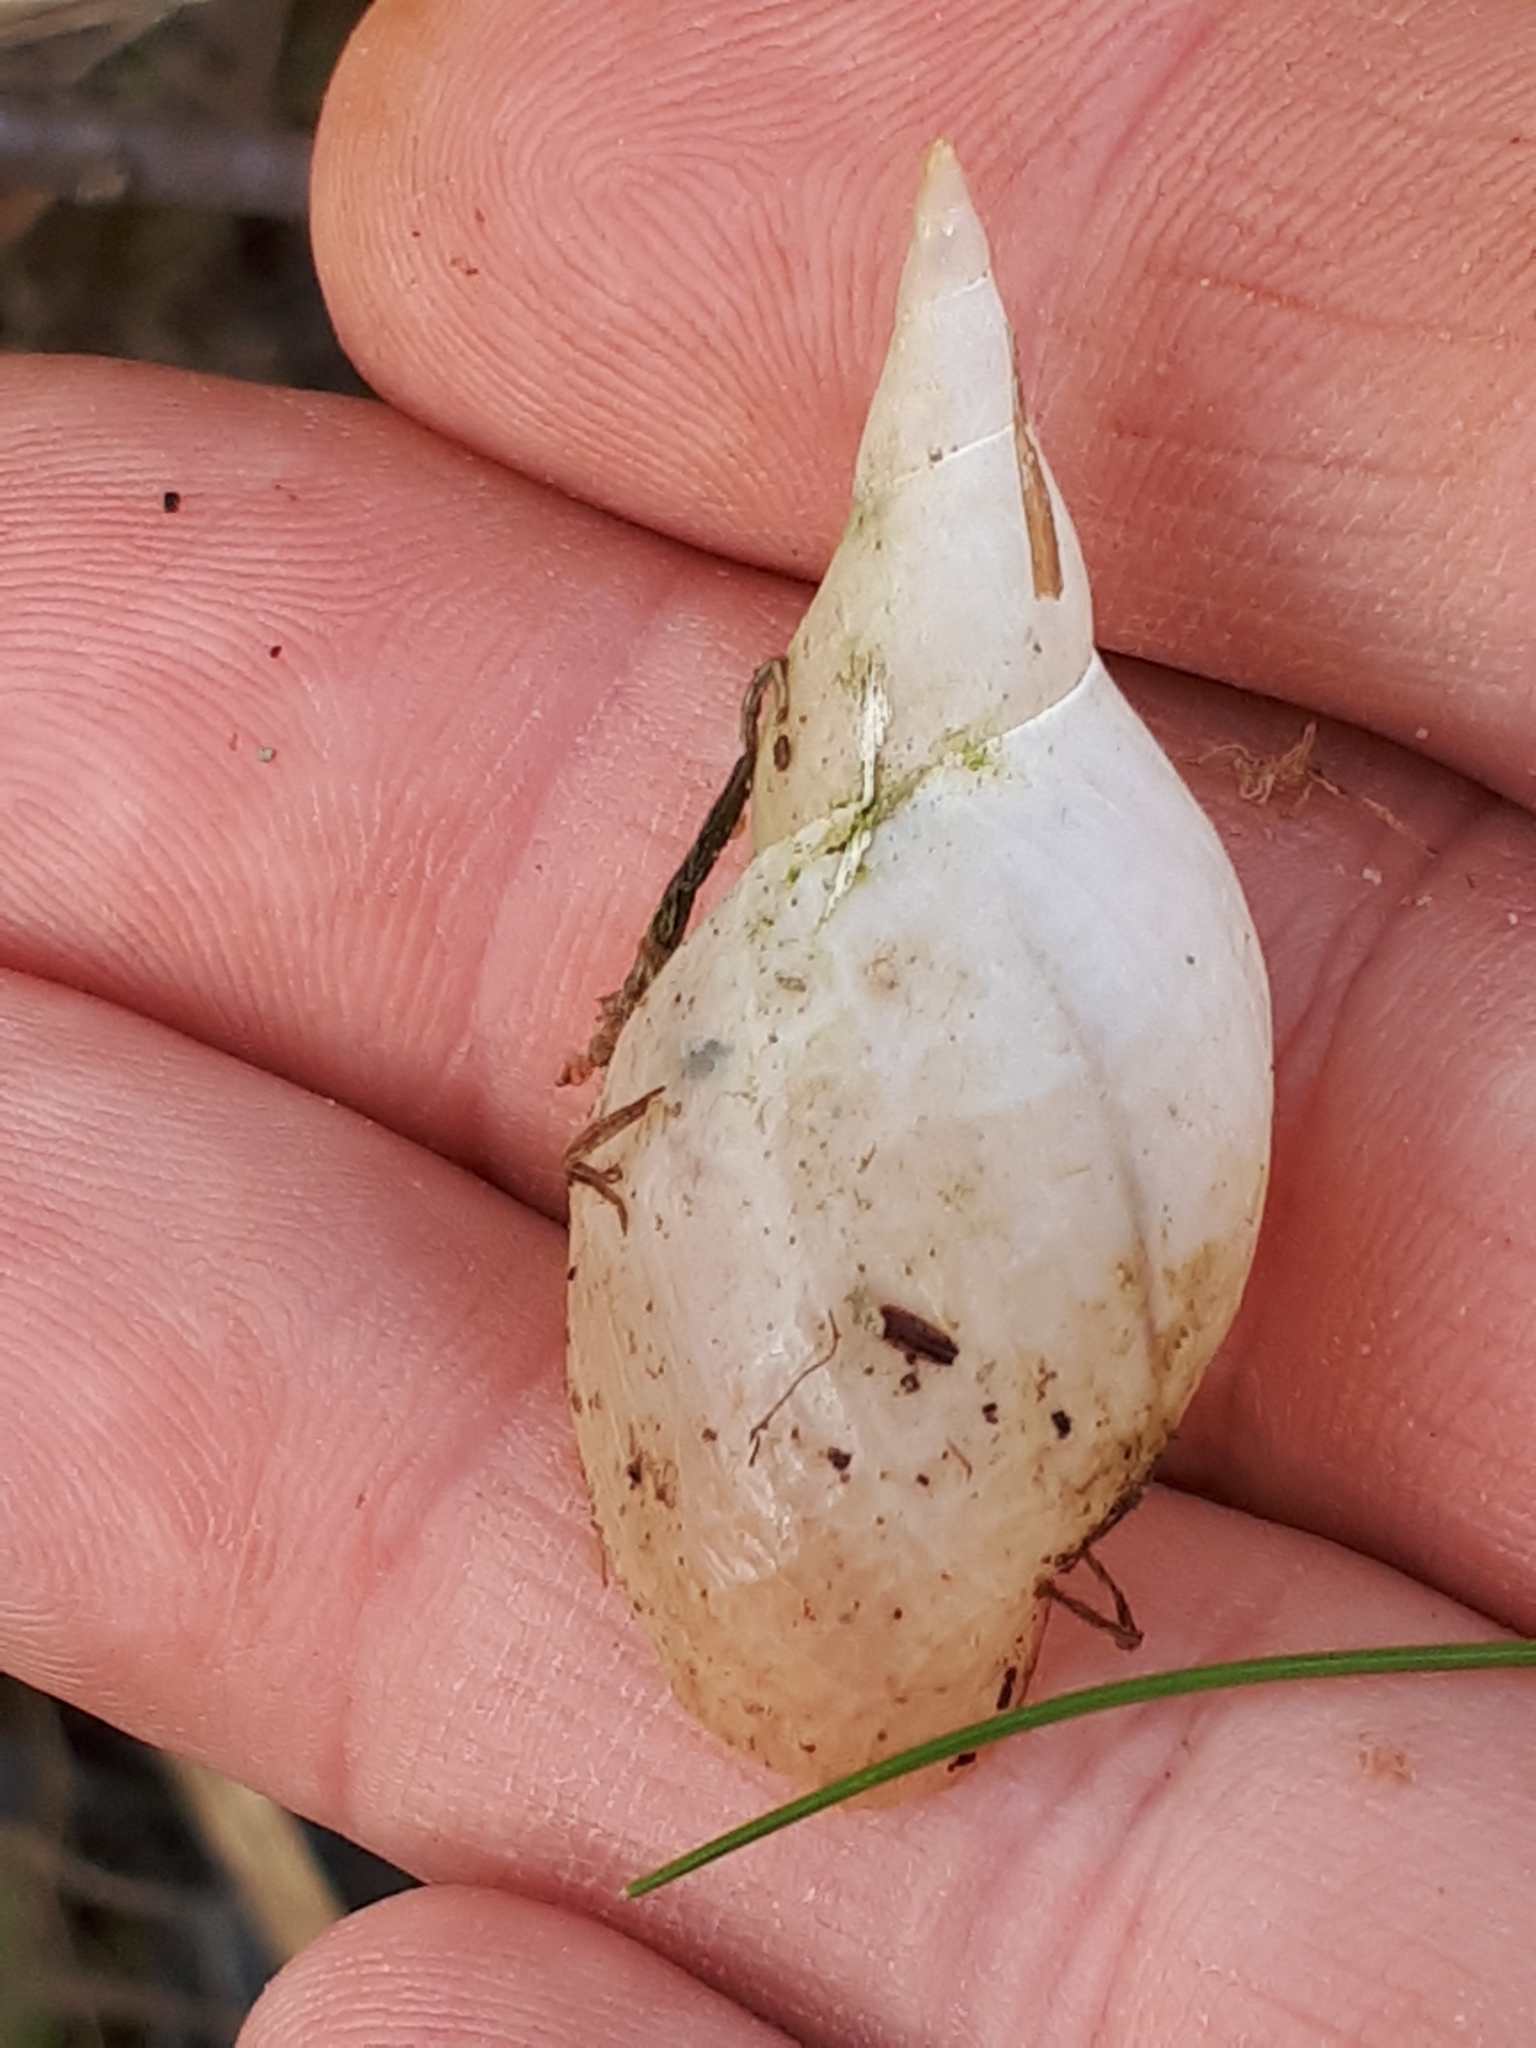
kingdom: Animalia
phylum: Mollusca
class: Gastropoda
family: Lymnaeidae
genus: Lymnaea
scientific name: Lymnaea stagnalis
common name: Great pond snail
